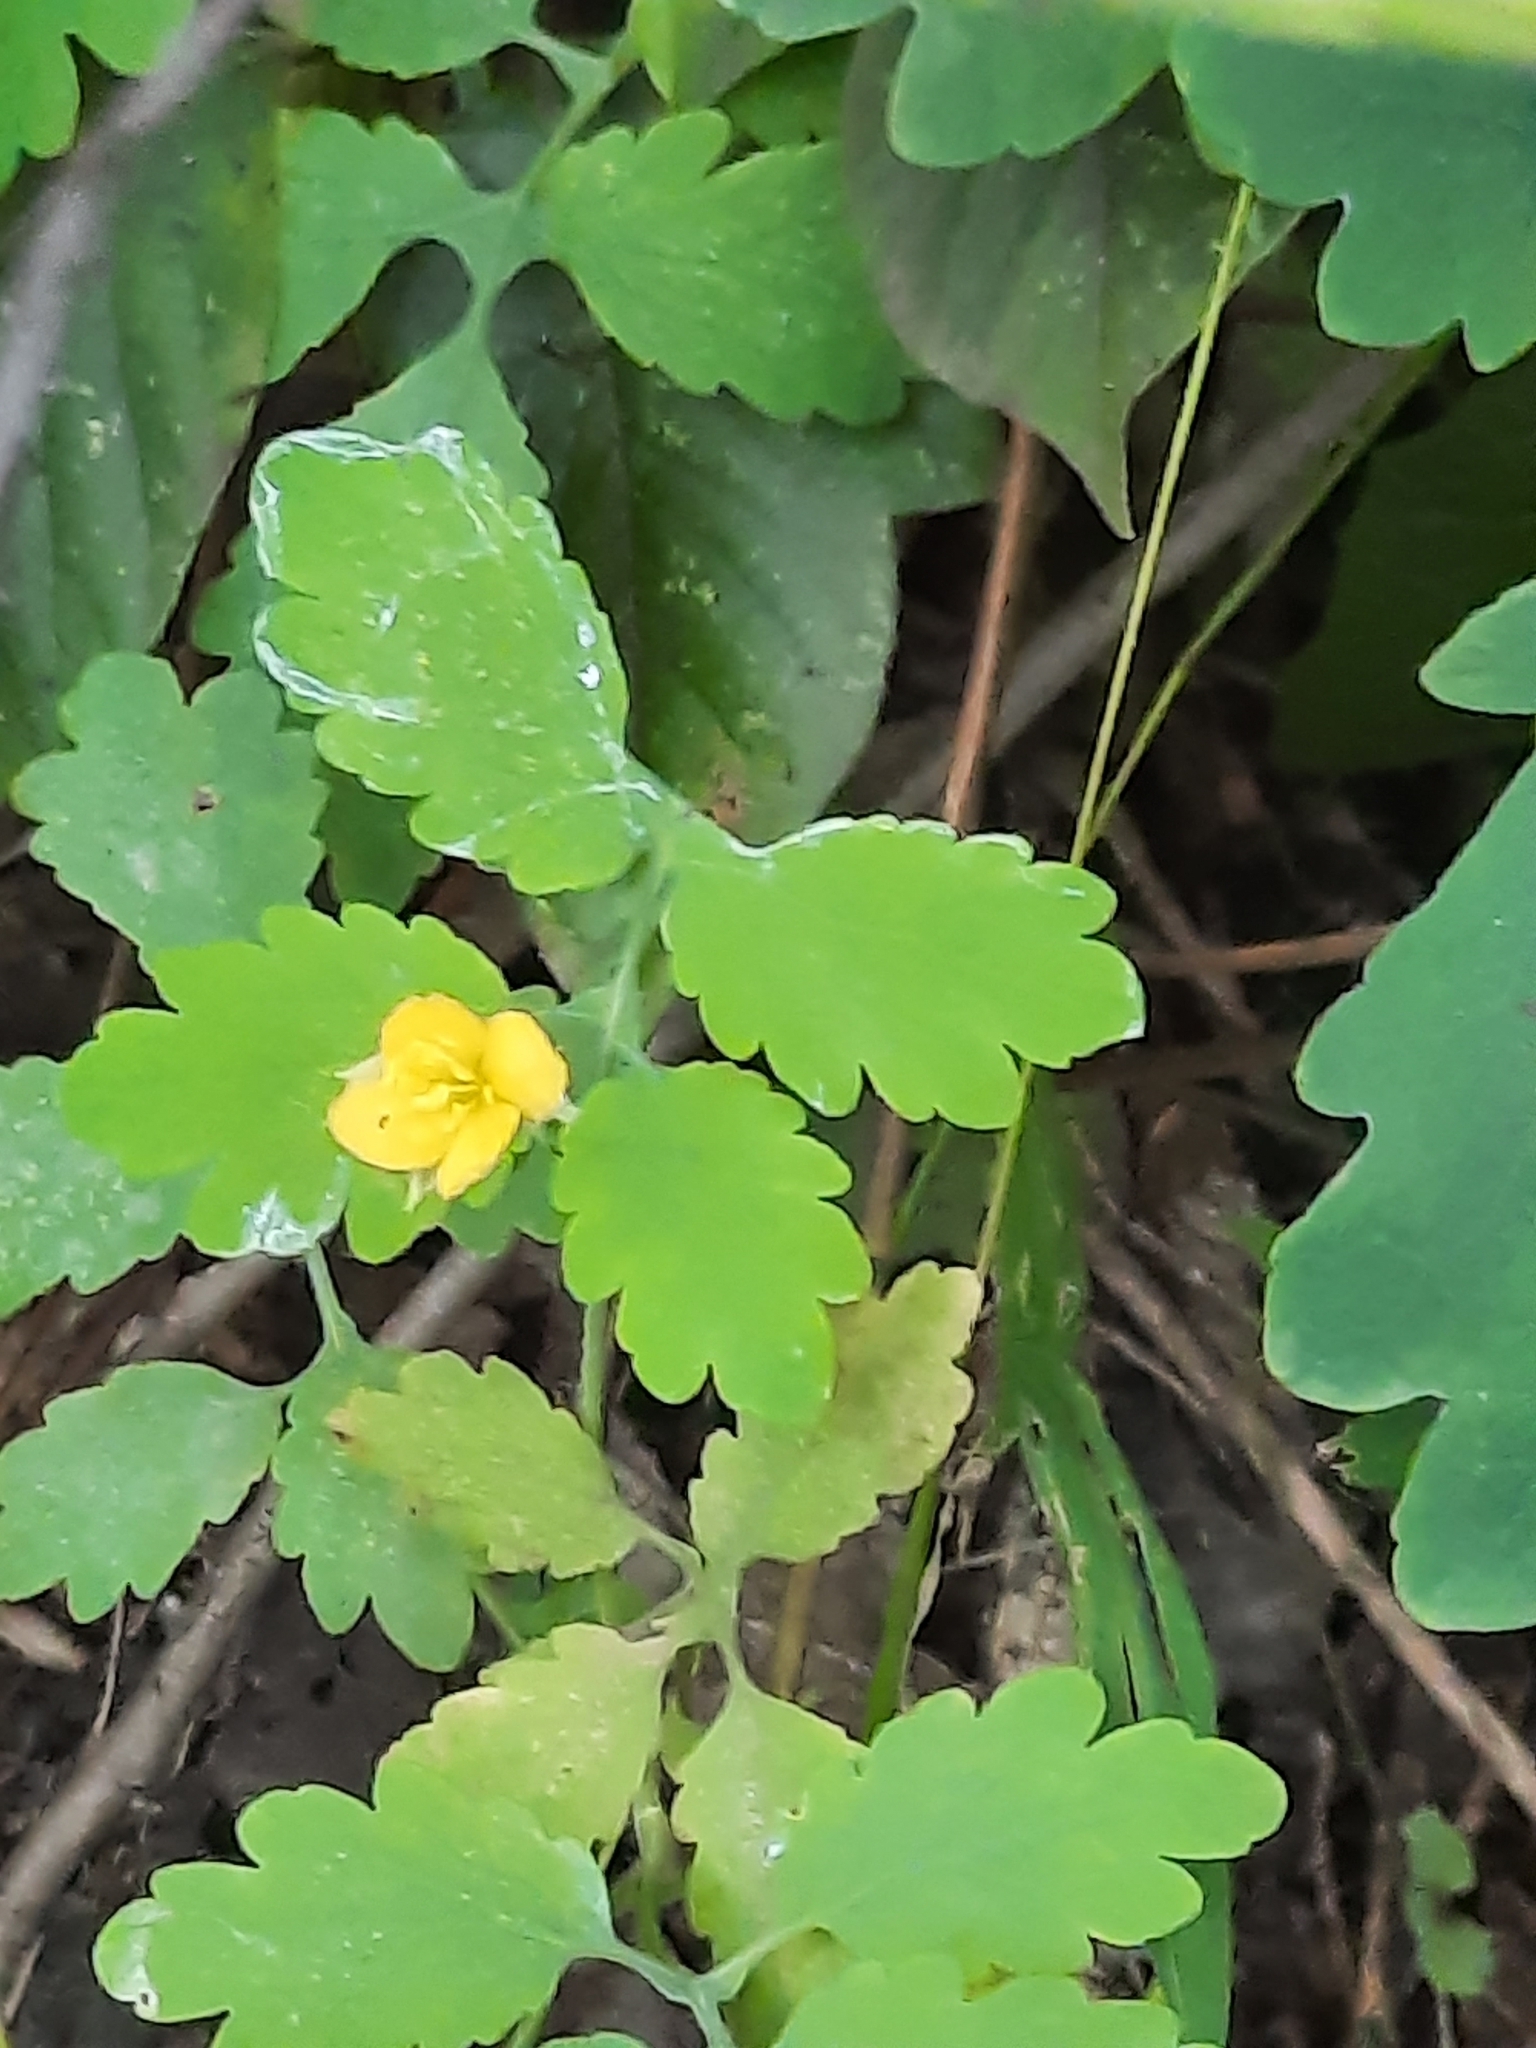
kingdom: Plantae
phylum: Tracheophyta
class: Magnoliopsida
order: Ranunculales
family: Papaveraceae
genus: Chelidonium
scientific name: Chelidonium majus
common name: Greater celandine
